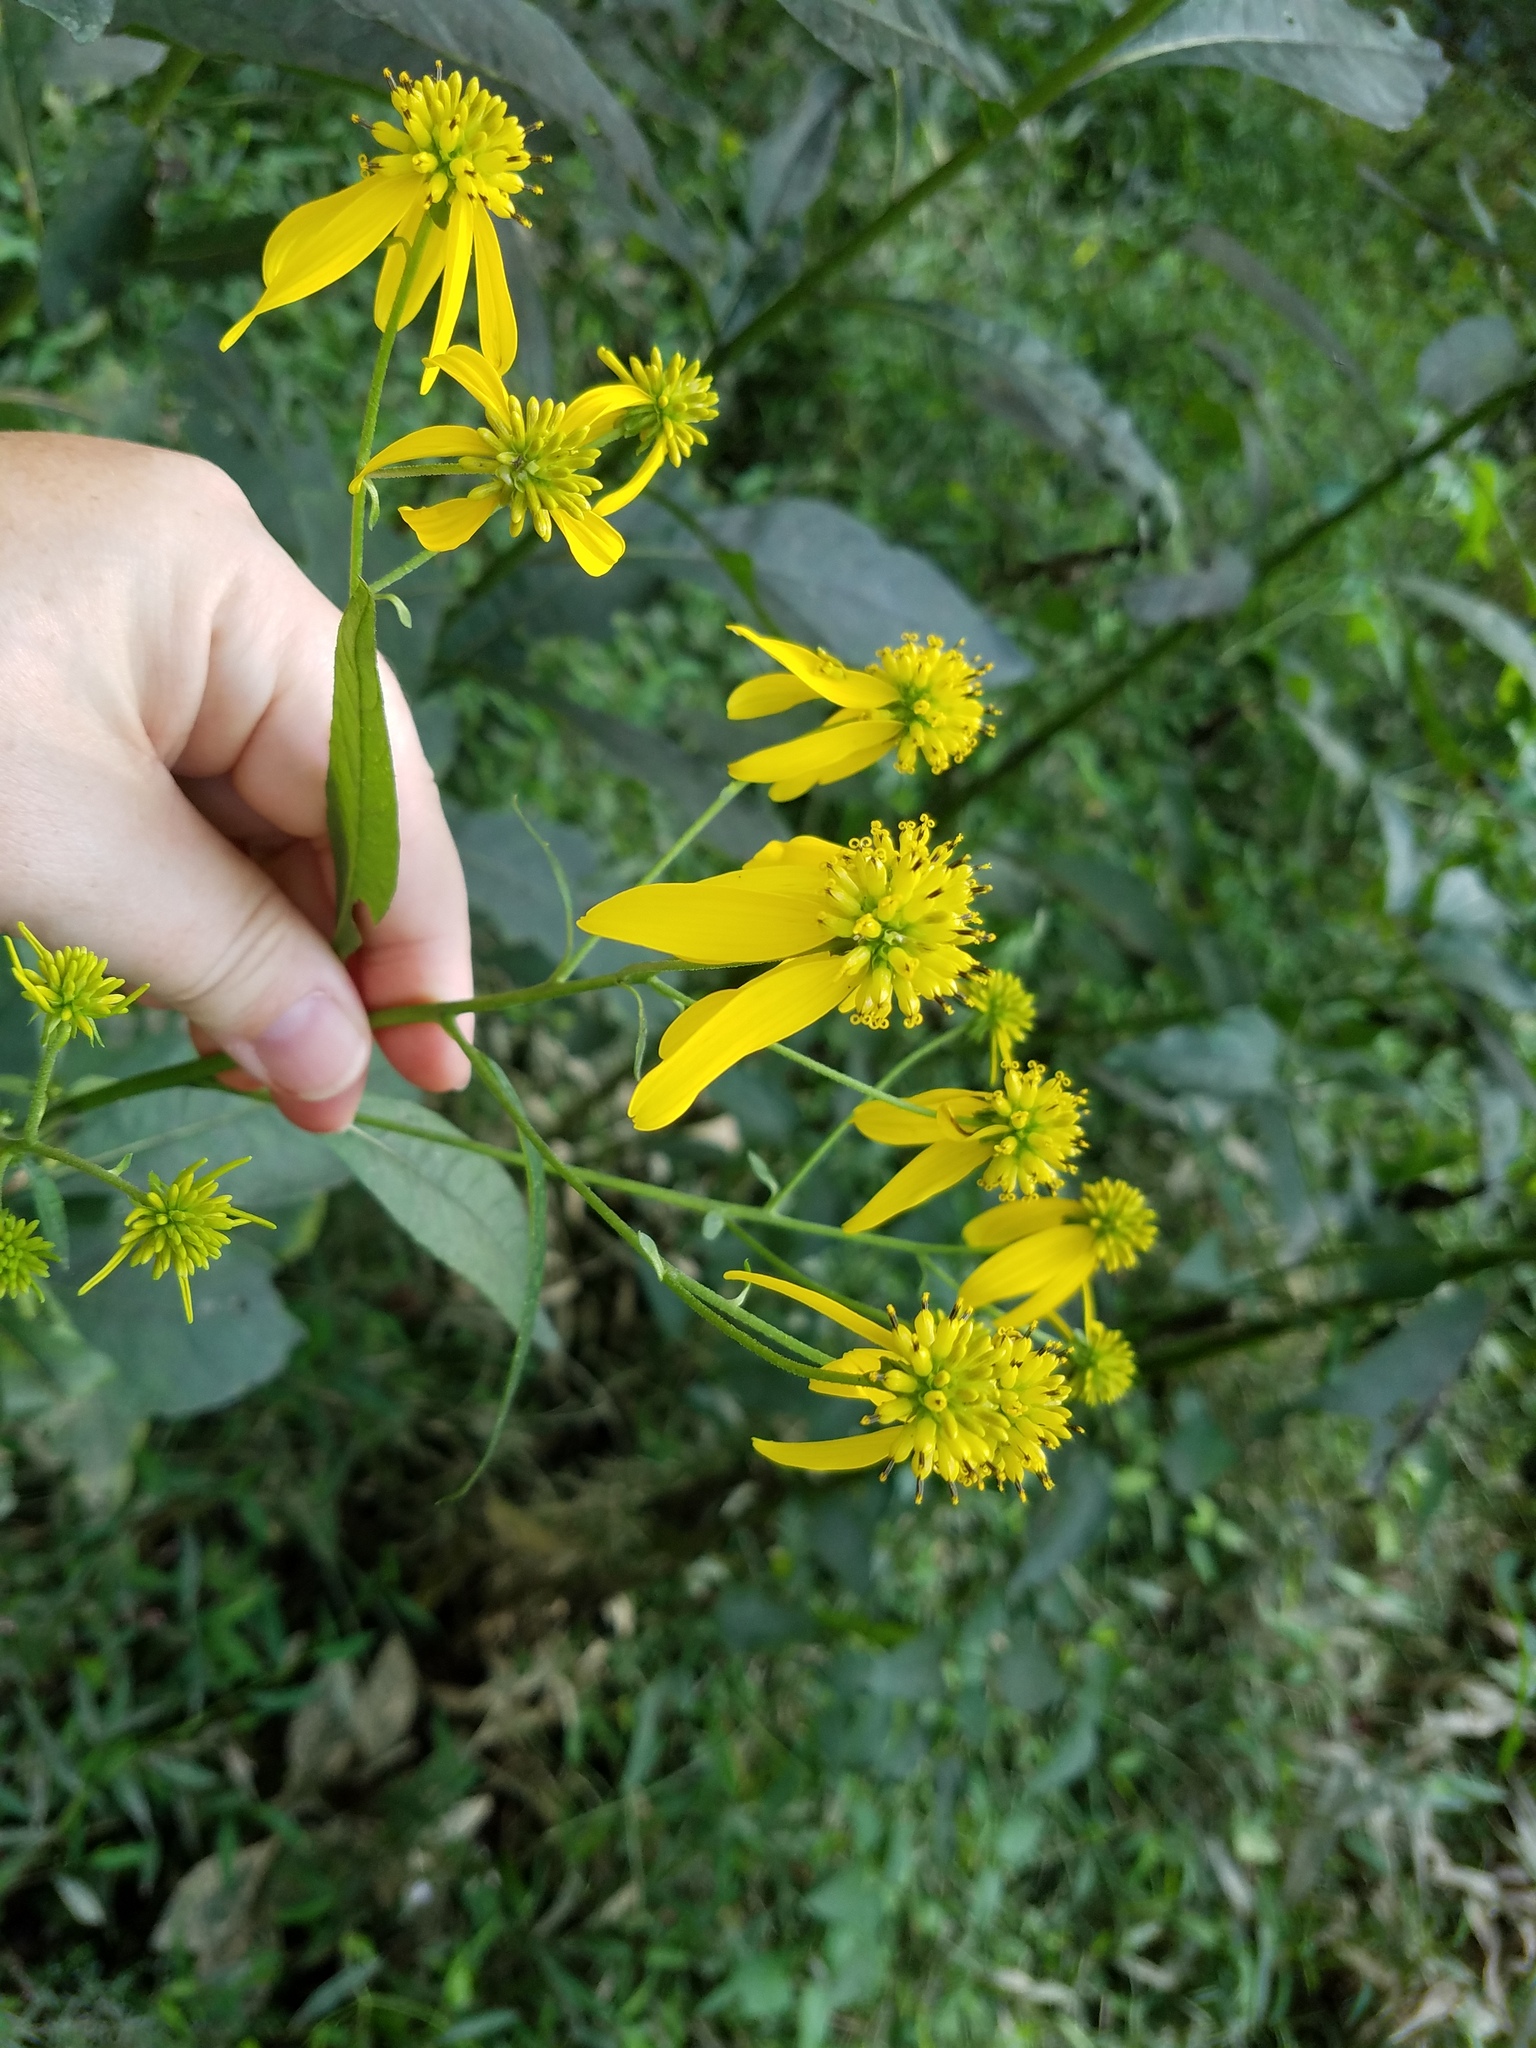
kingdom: Plantae
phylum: Tracheophyta
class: Magnoliopsida
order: Asterales
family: Asteraceae
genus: Verbesina
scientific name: Verbesina alternifolia
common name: Wingstem
